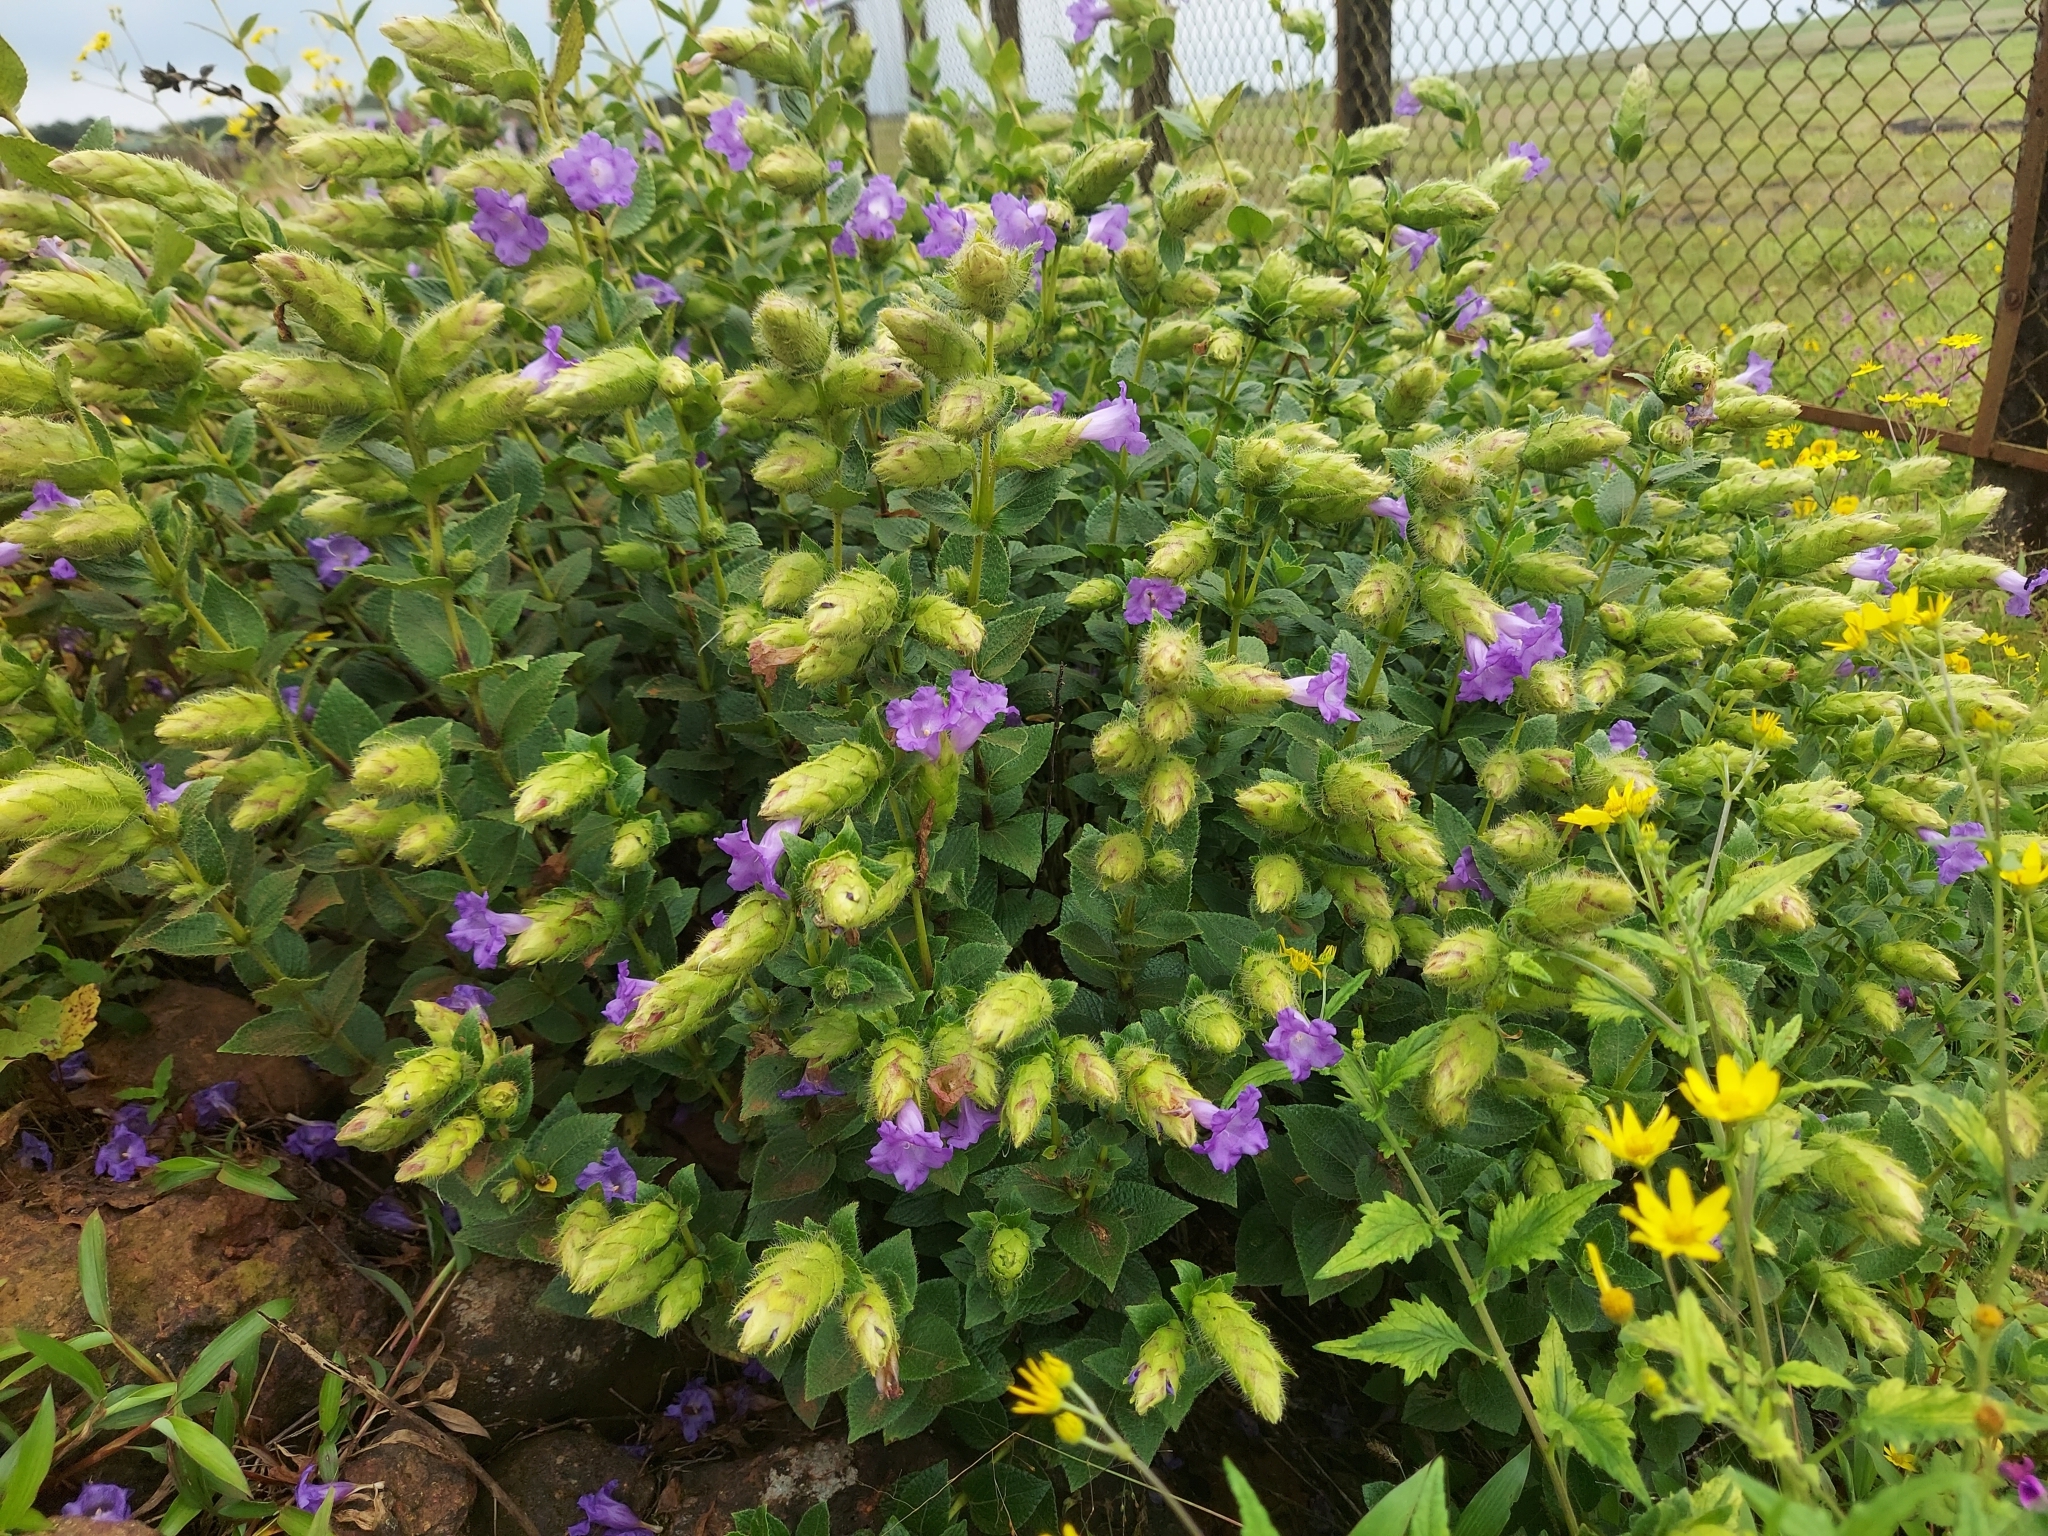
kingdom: Plantae
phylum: Tracheophyta
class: Magnoliopsida
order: Lamiales
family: Acanthaceae
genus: Strobilanthes
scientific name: Strobilanthes sessilis
